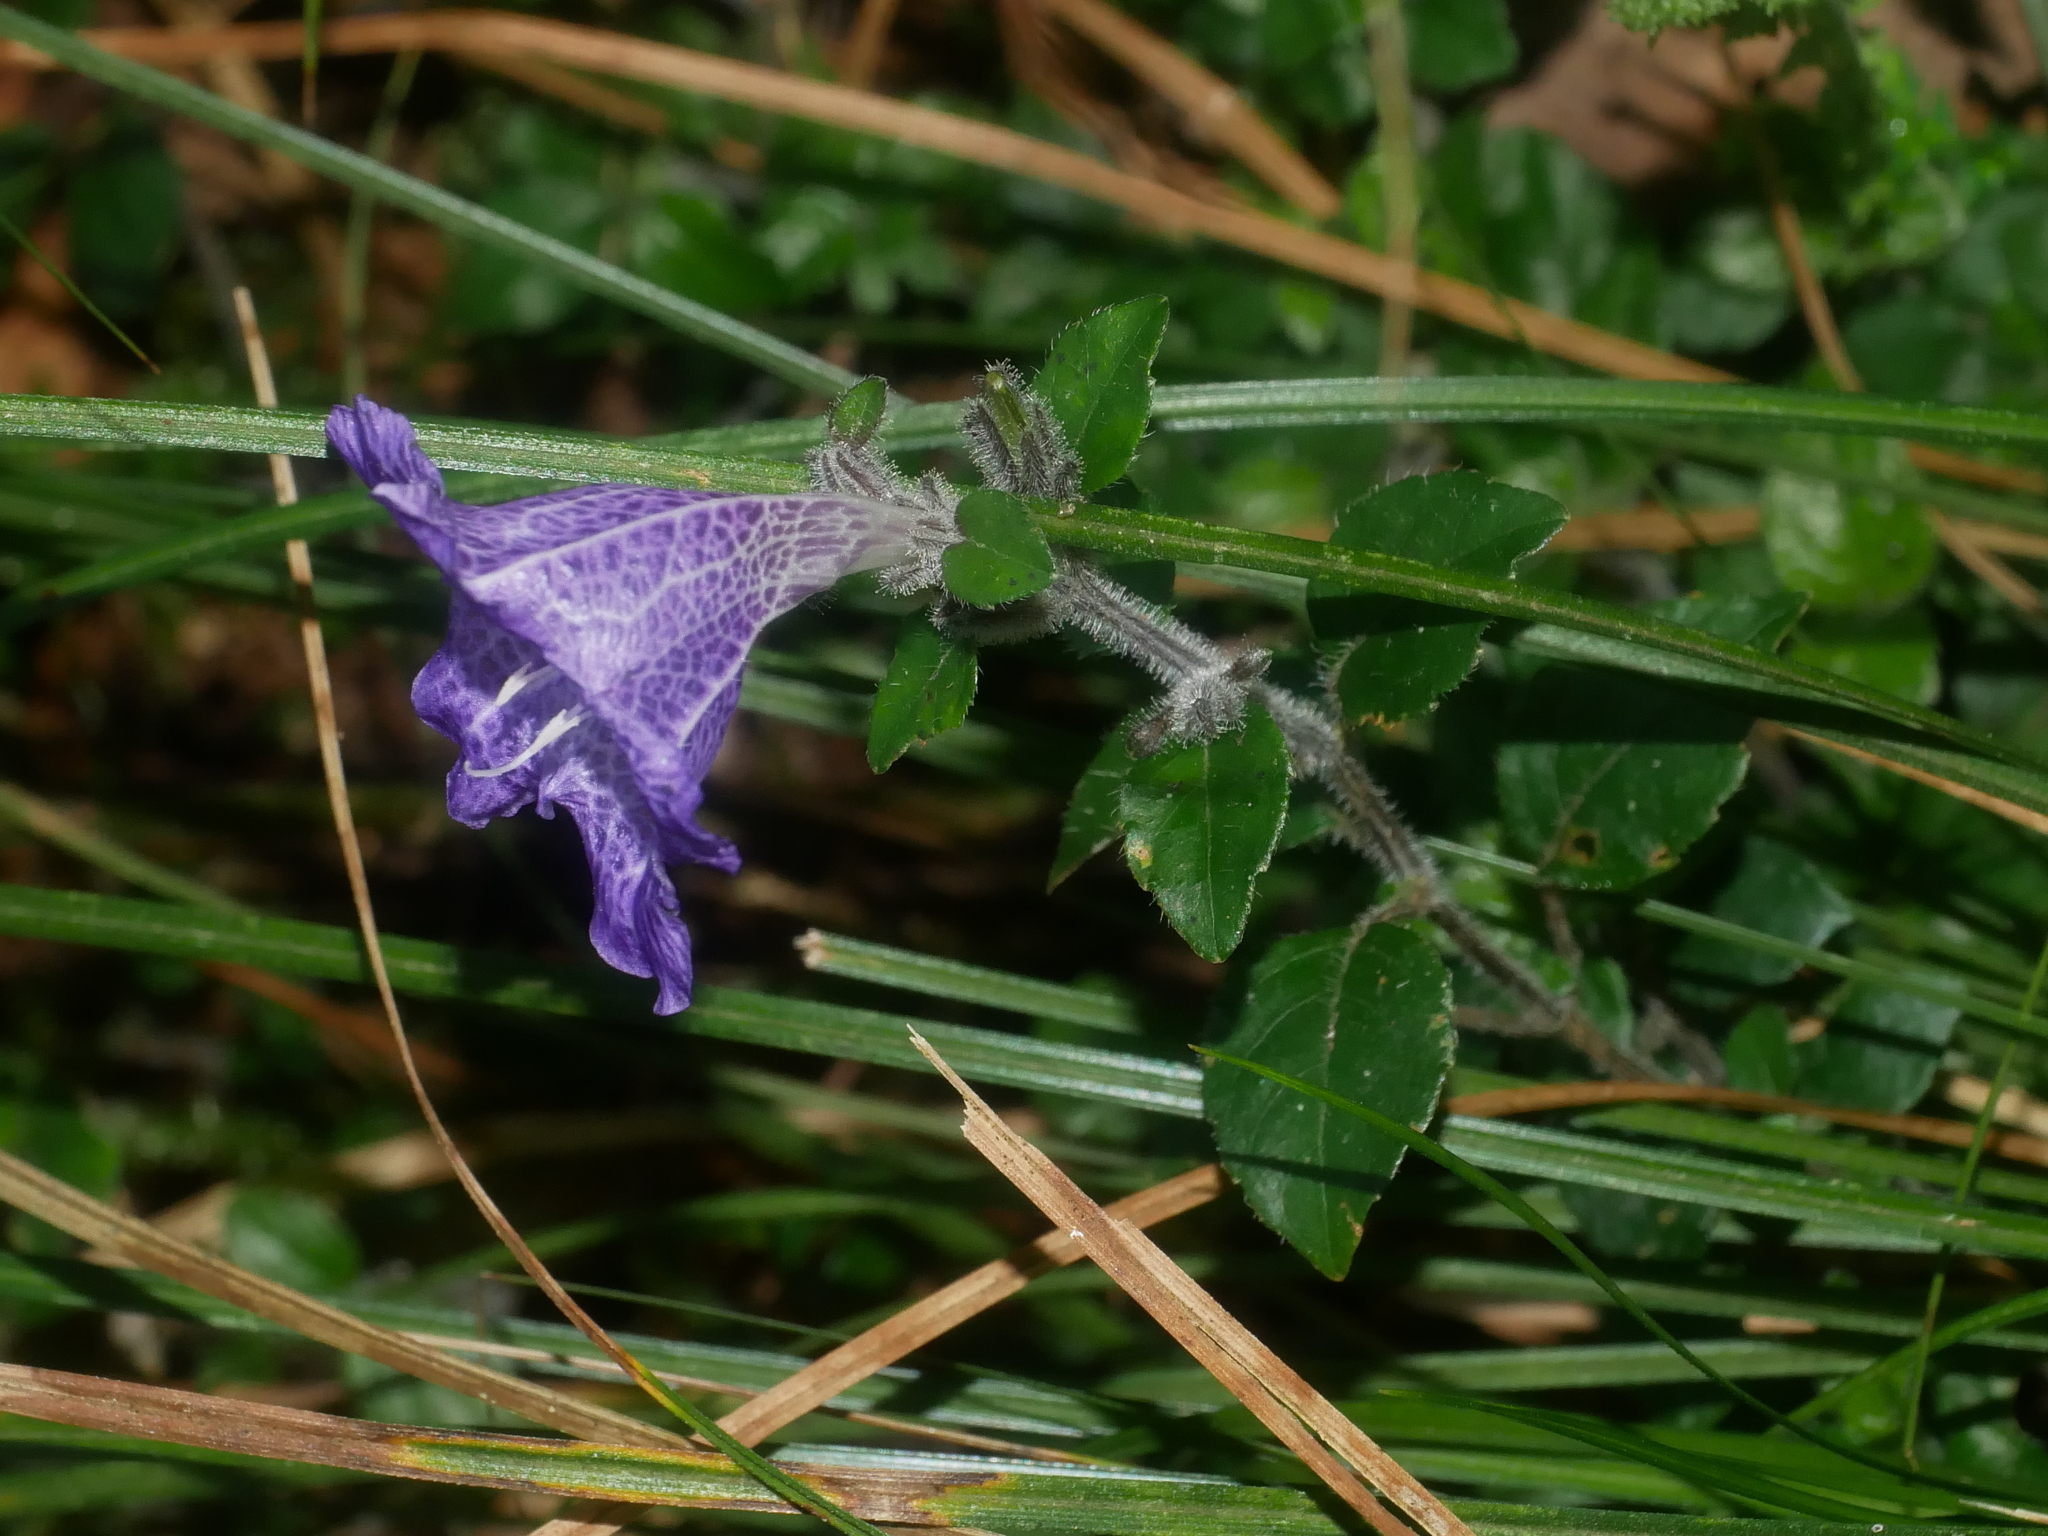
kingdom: Plantae
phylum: Tracheophyta
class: Magnoliopsida
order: Lamiales
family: Acanthaceae
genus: Strobilanthes
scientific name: Strobilanthes rankanensis
